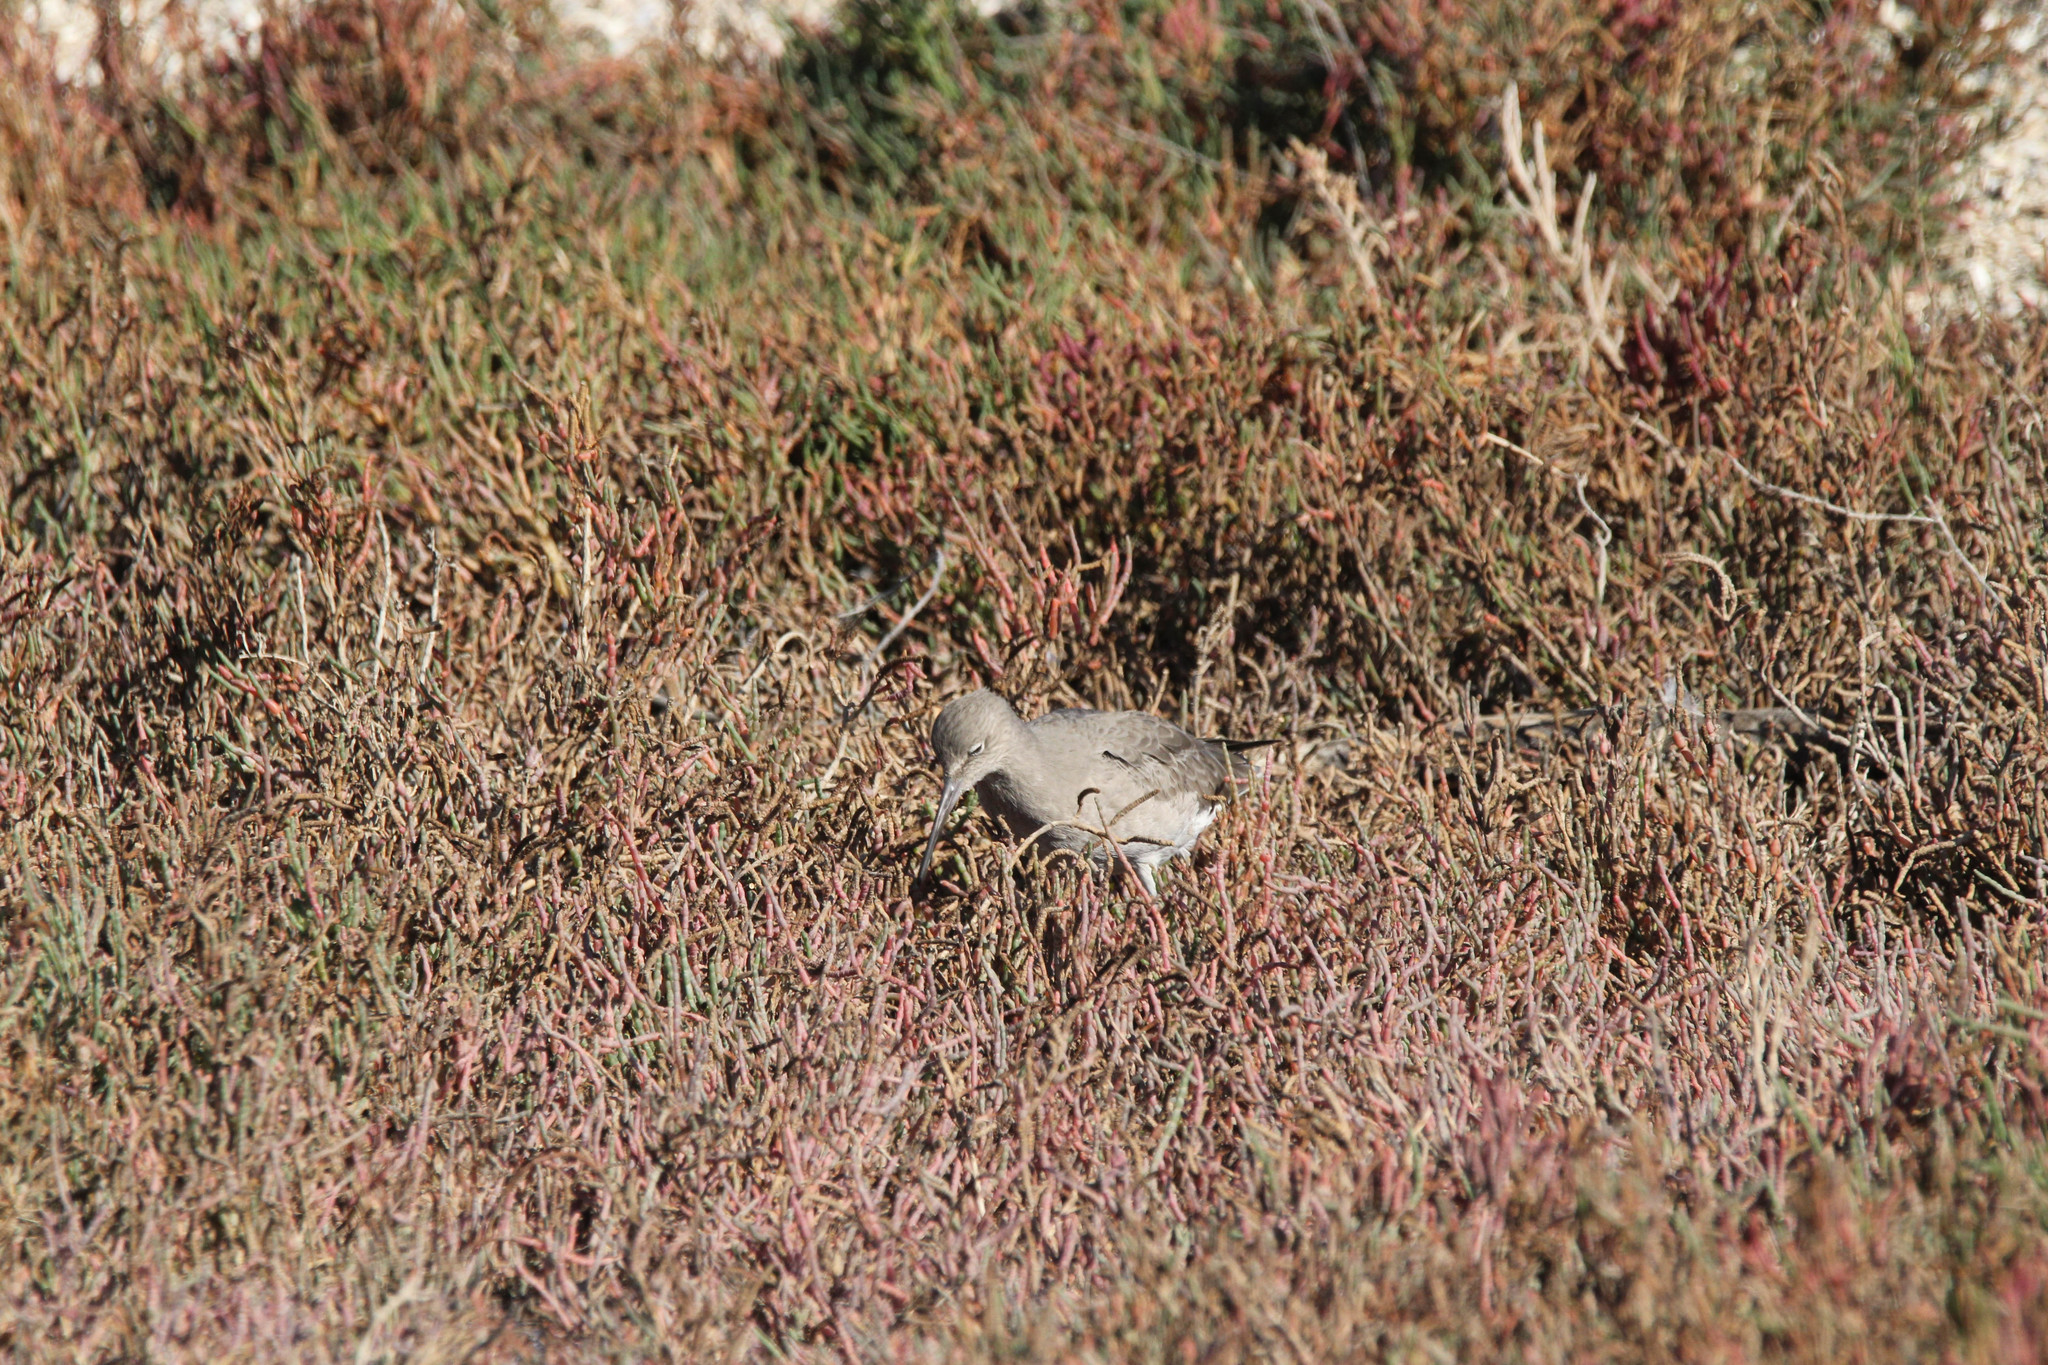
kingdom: Animalia
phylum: Chordata
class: Aves
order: Charadriiformes
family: Scolopacidae
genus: Tringa
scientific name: Tringa semipalmata
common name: Willet
